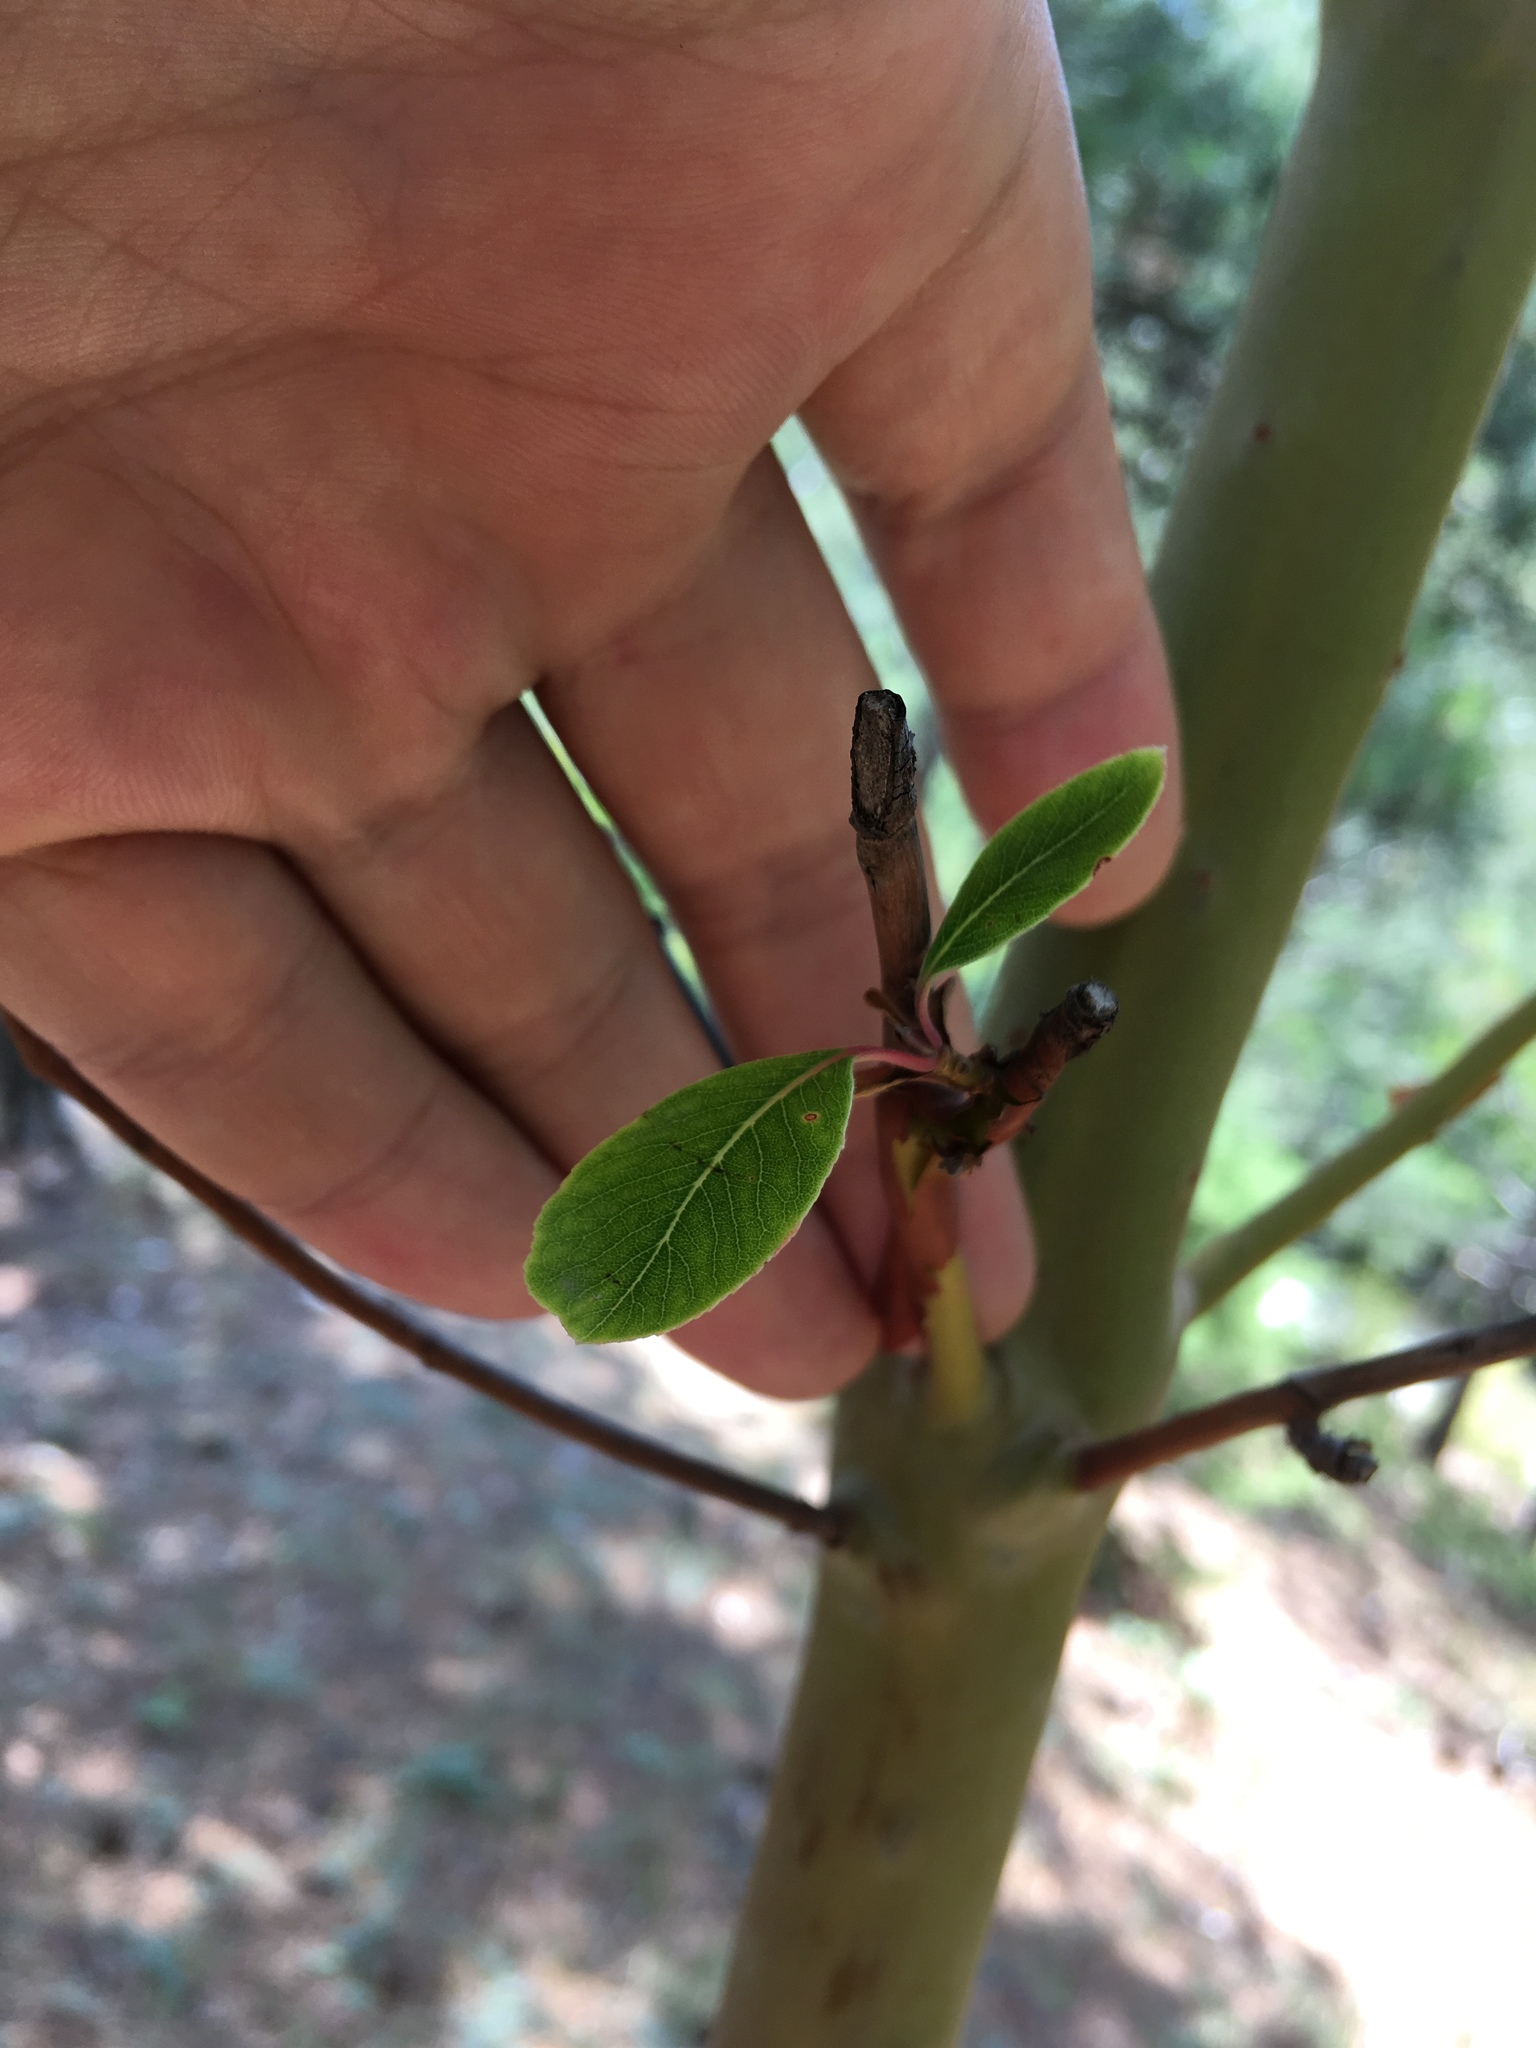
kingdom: Plantae
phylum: Tracheophyta
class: Magnoliopsida
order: Ericales
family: Ericaceae
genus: Arbutus
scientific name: Arbutus andrachne
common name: Greek strawberry tree
